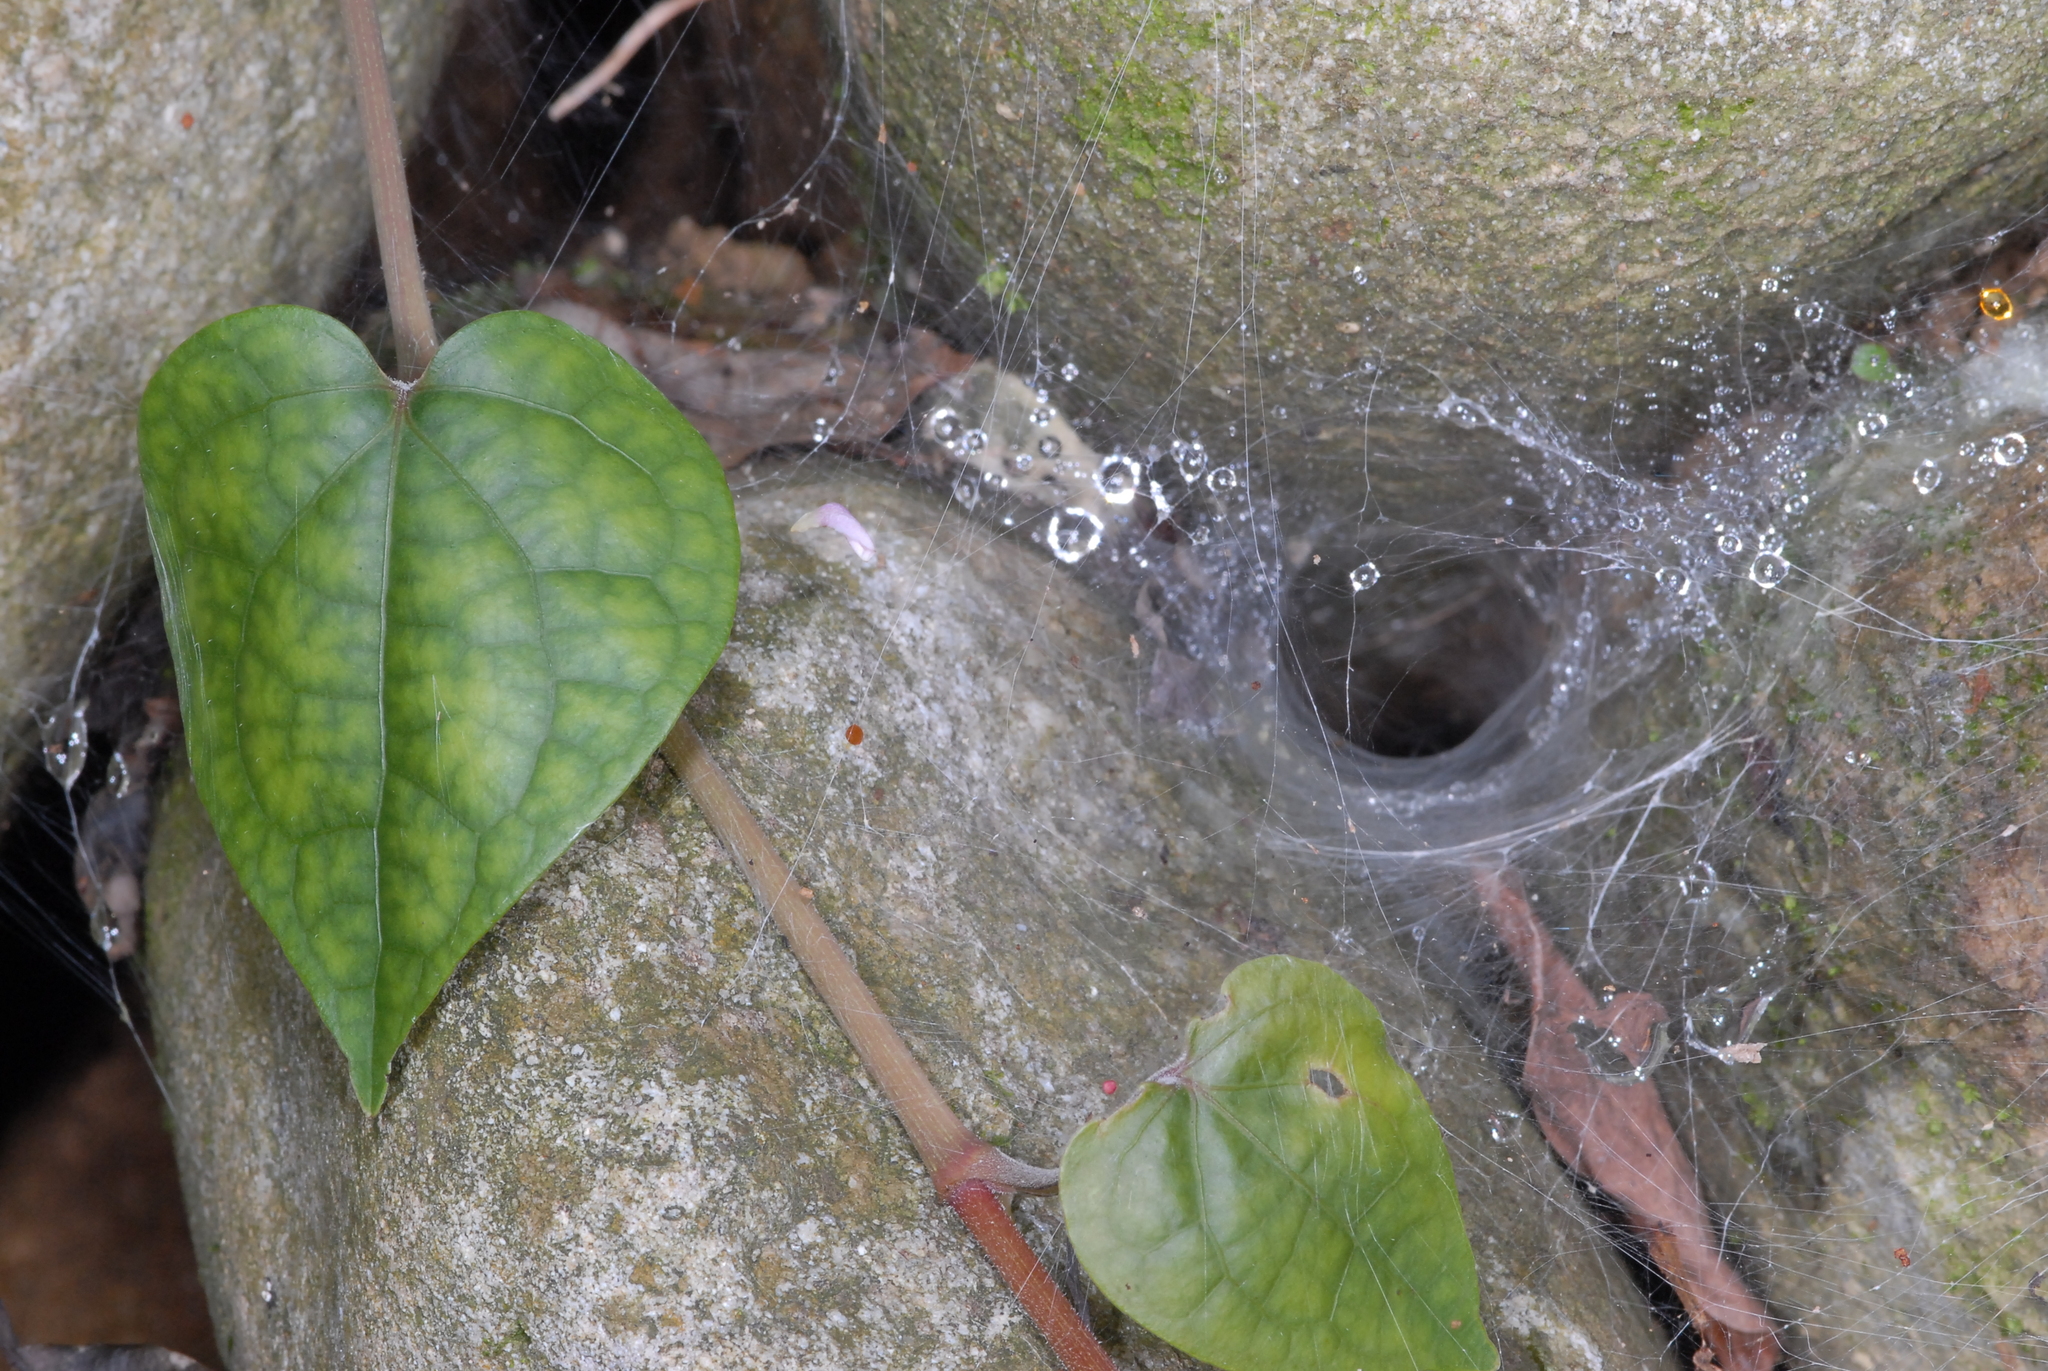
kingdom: Plantae
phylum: Tracheophyta
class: Magnoliopsida
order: Piperales
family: Piperaceae
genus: Piper
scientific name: Piper kadsura
